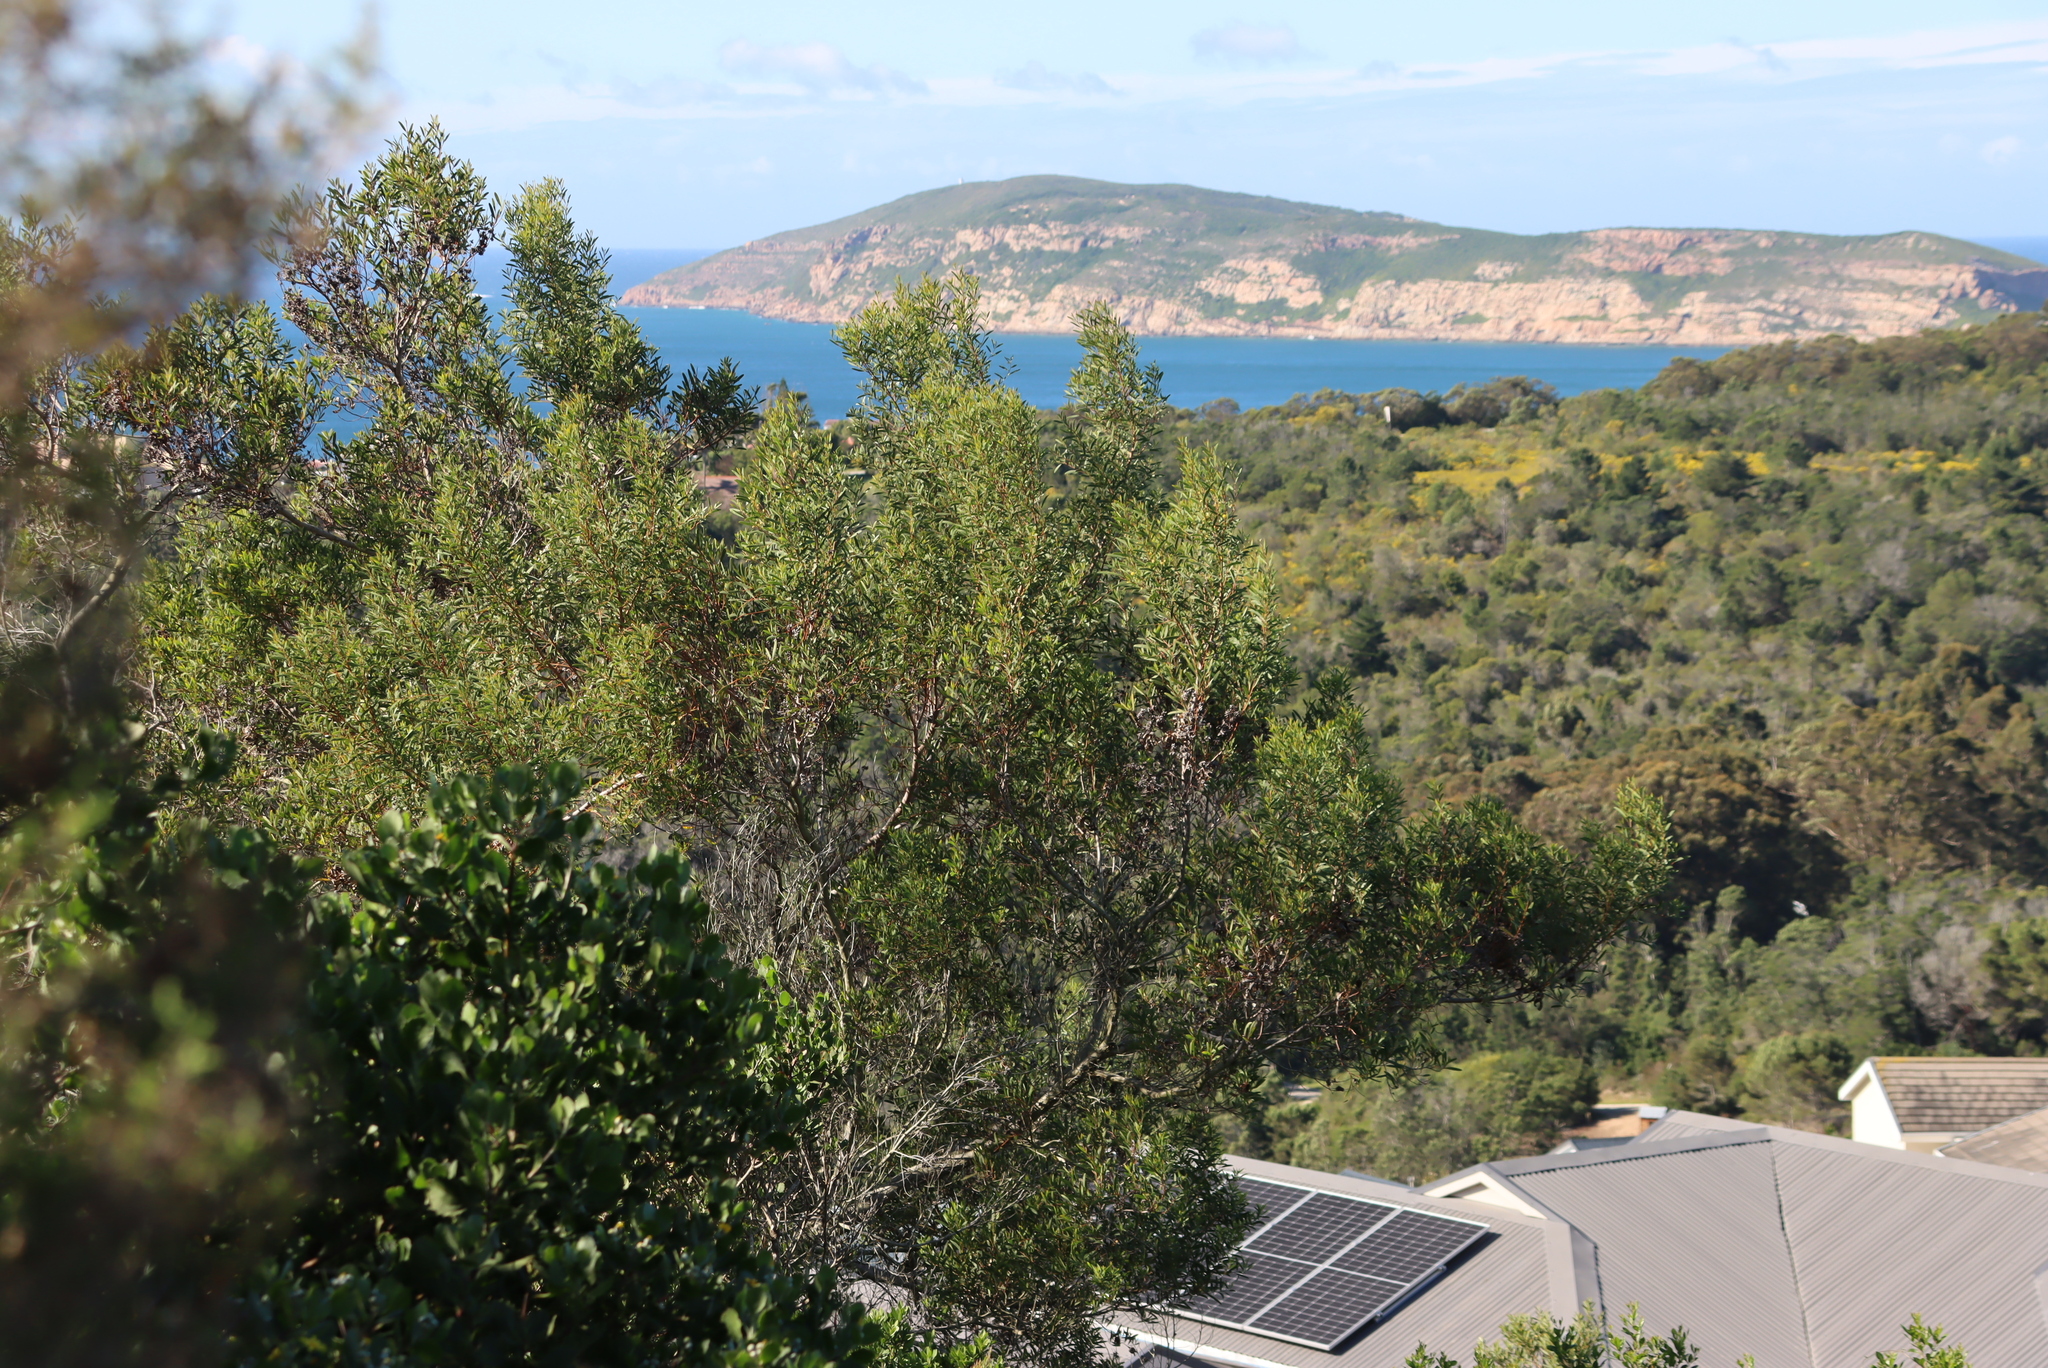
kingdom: Plantae
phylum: Tracheophyta
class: Magnoliopsida
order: Fabales
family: Fabaceae
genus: Acacia
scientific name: Acacia cyclops
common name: Coastal wattle
